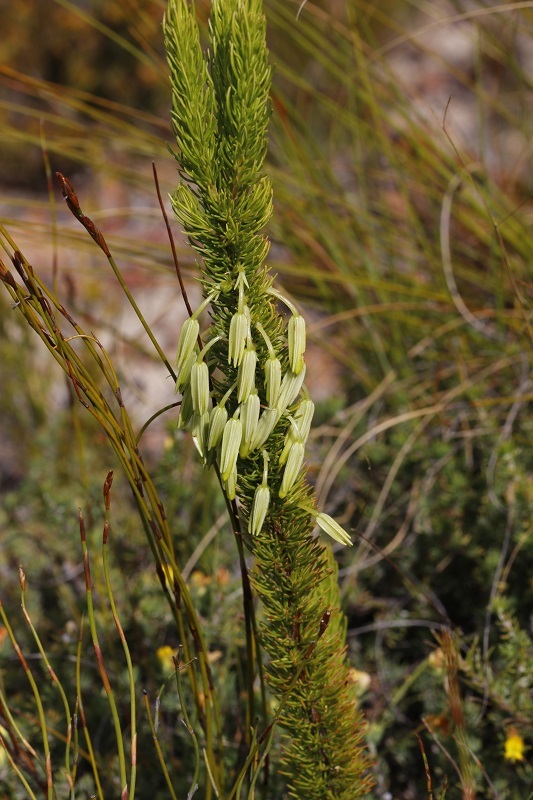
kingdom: Plantae
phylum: Tracheophyta
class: Magnoliopsida
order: Ericales
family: Ericaceae
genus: Erica
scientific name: Erica plukenetii
